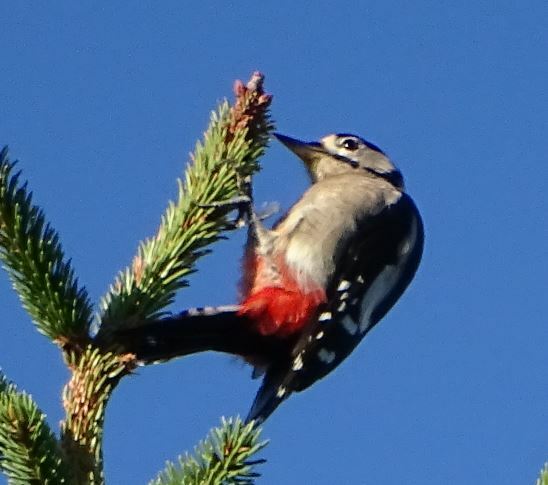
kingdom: Animalia
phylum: Chordata
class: Aves
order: Piciformes
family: Picidae
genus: Dendrocopos
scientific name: Dendrocopos major
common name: Great spotted woodpecker
